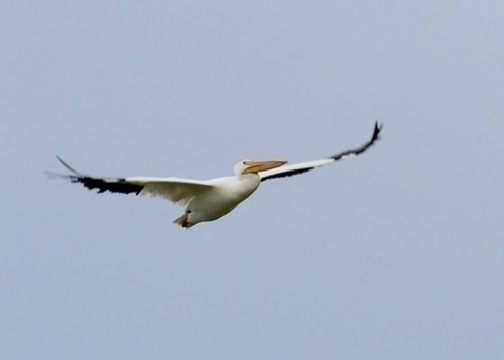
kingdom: Animalia
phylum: Chordata
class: Aves
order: Pelecaniformes
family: Pelecanidae
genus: Pelecanus
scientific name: Pelecanus erythrorhynchos
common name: American white pelican
